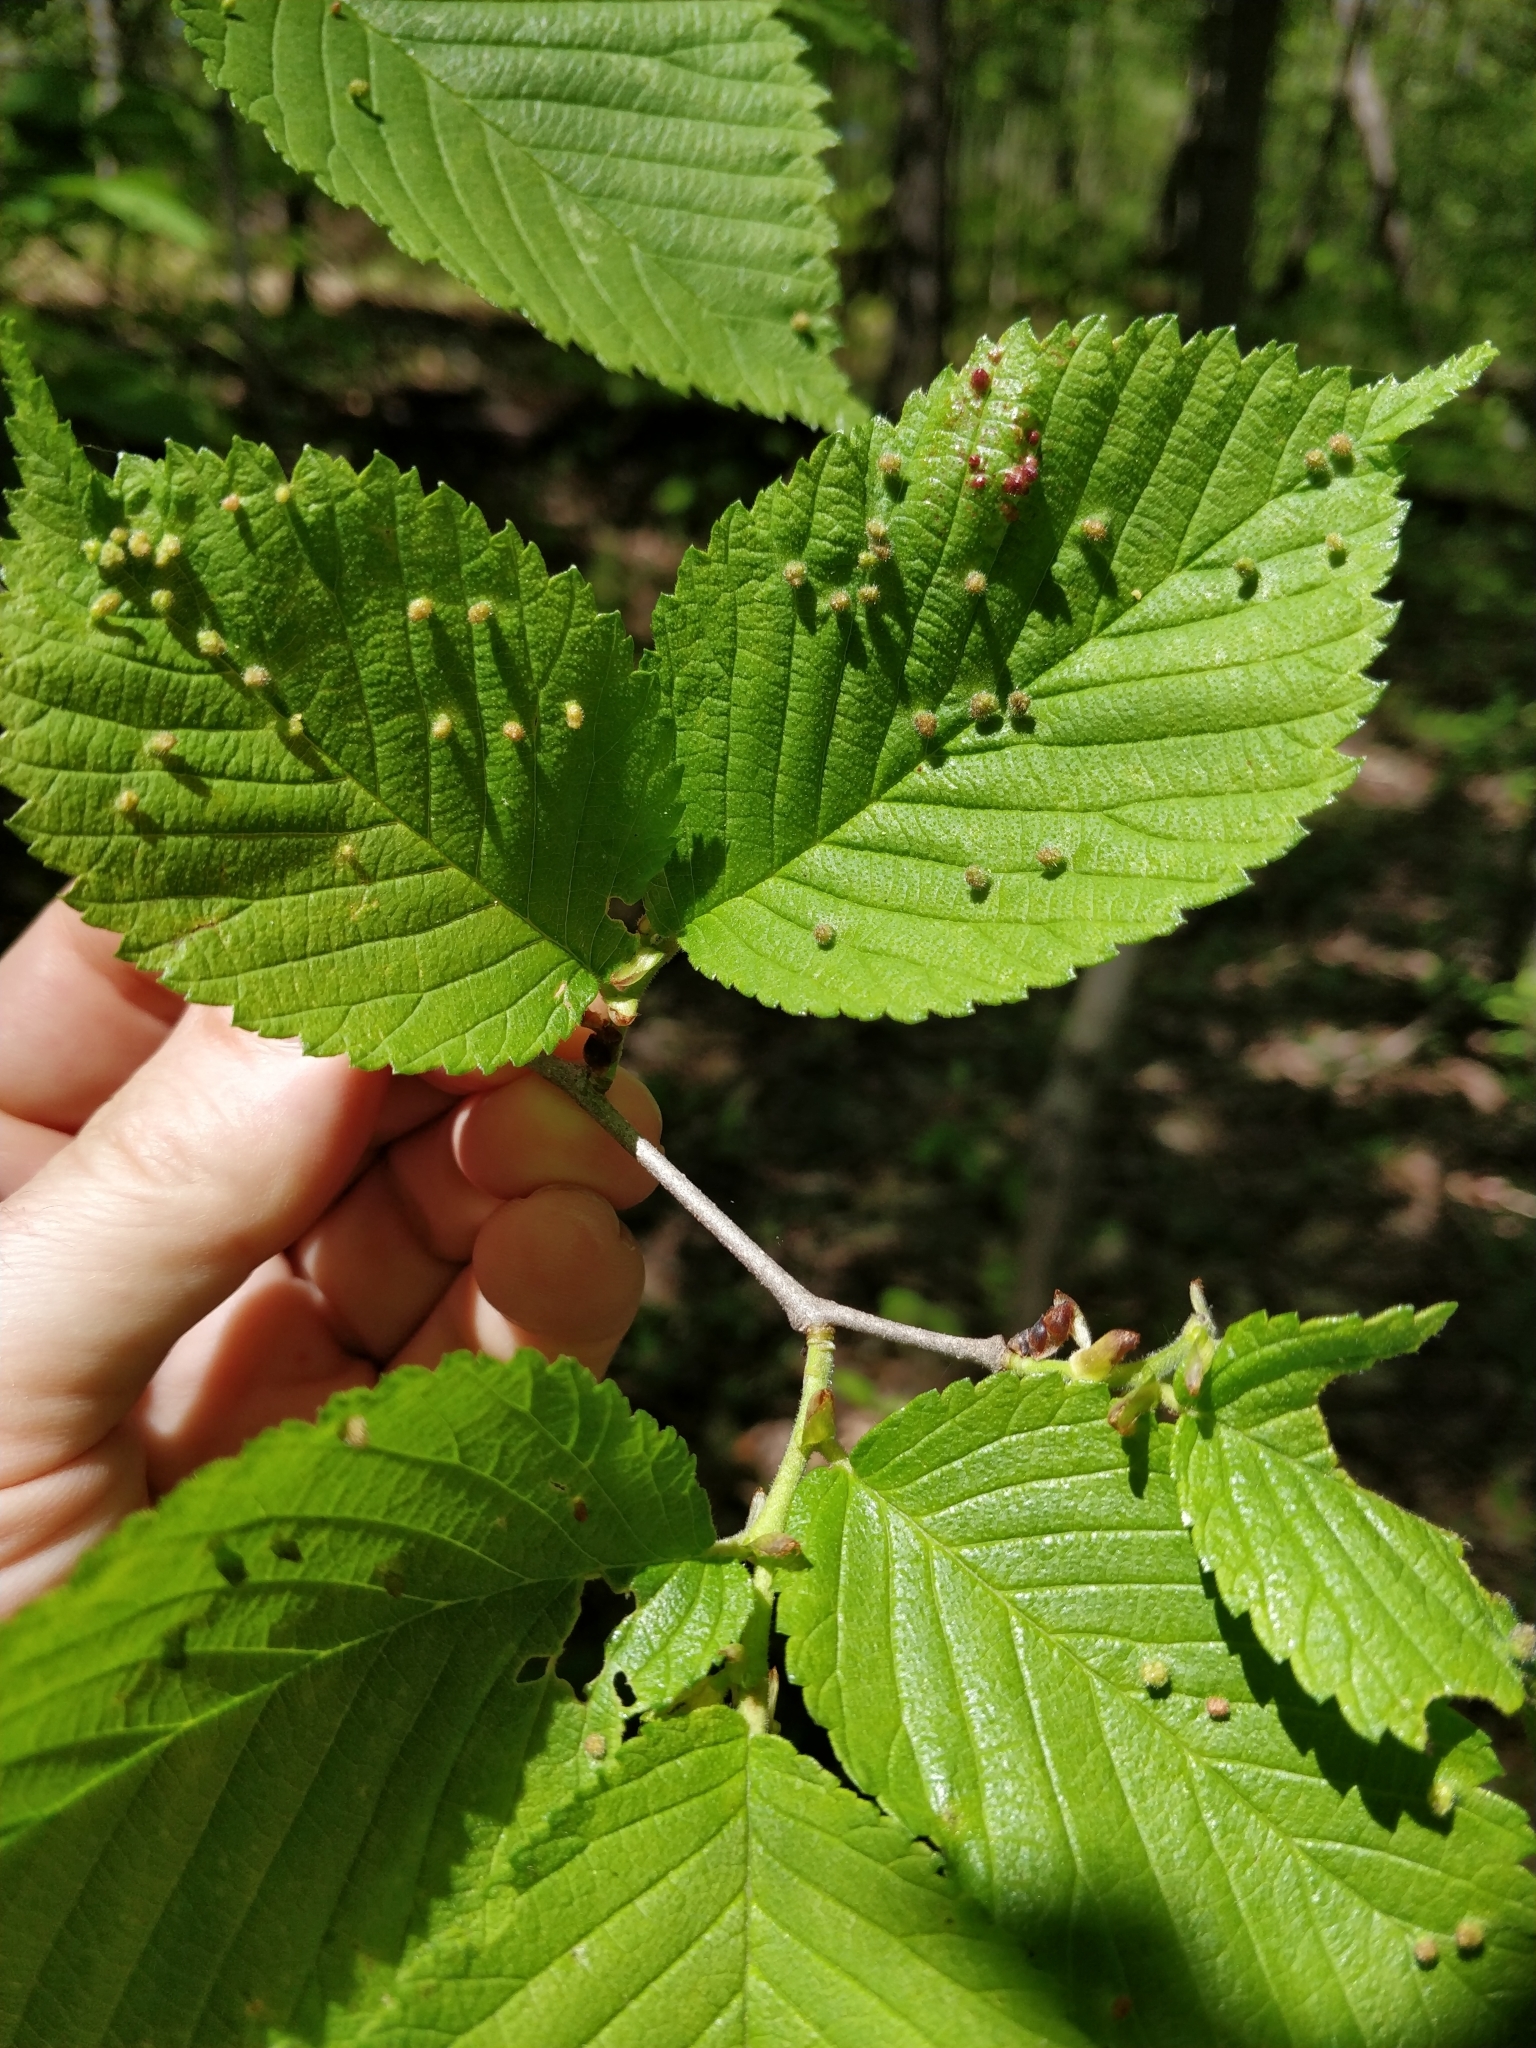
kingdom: Animalia
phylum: Arthropoda
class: Insecta
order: Hemiptera
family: Aphididae
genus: Tetraneura
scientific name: Tetraneura nigriabdominalis
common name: Aphid
